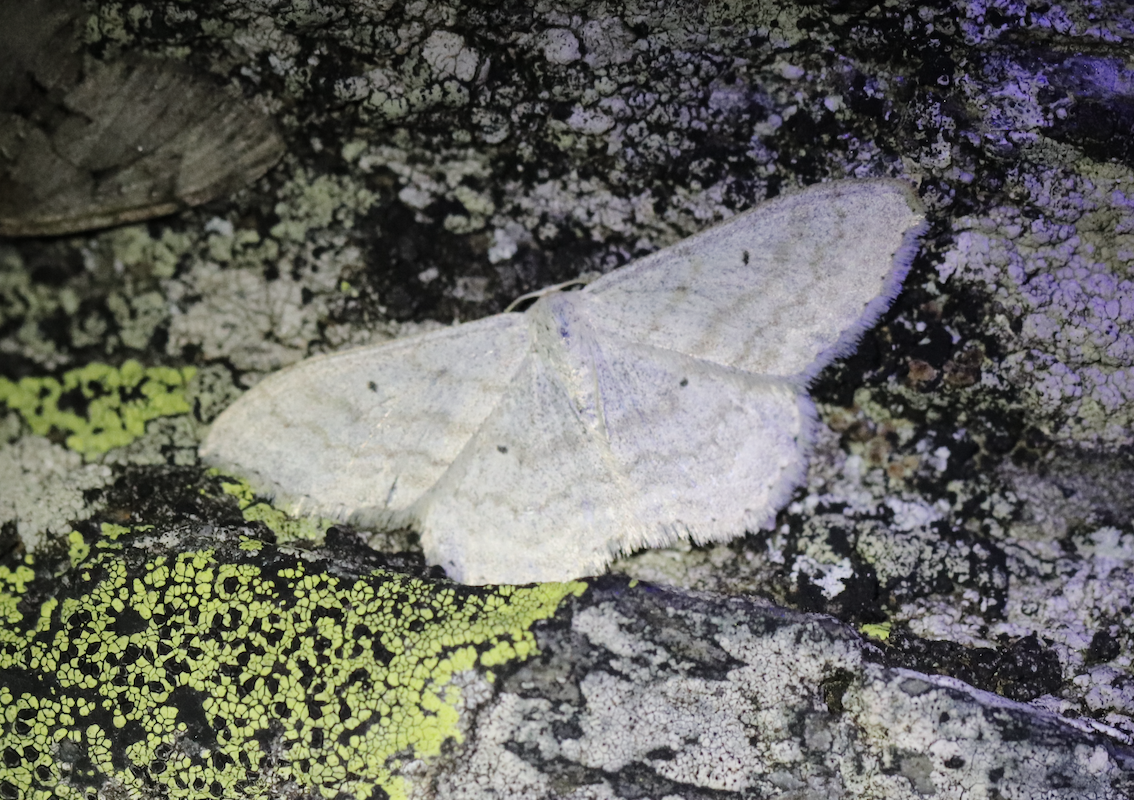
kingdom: Animalia
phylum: Arthropoda
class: Insecta
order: Lepidoptera
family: Geometridae
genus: Scopula
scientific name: Scopula incanata
